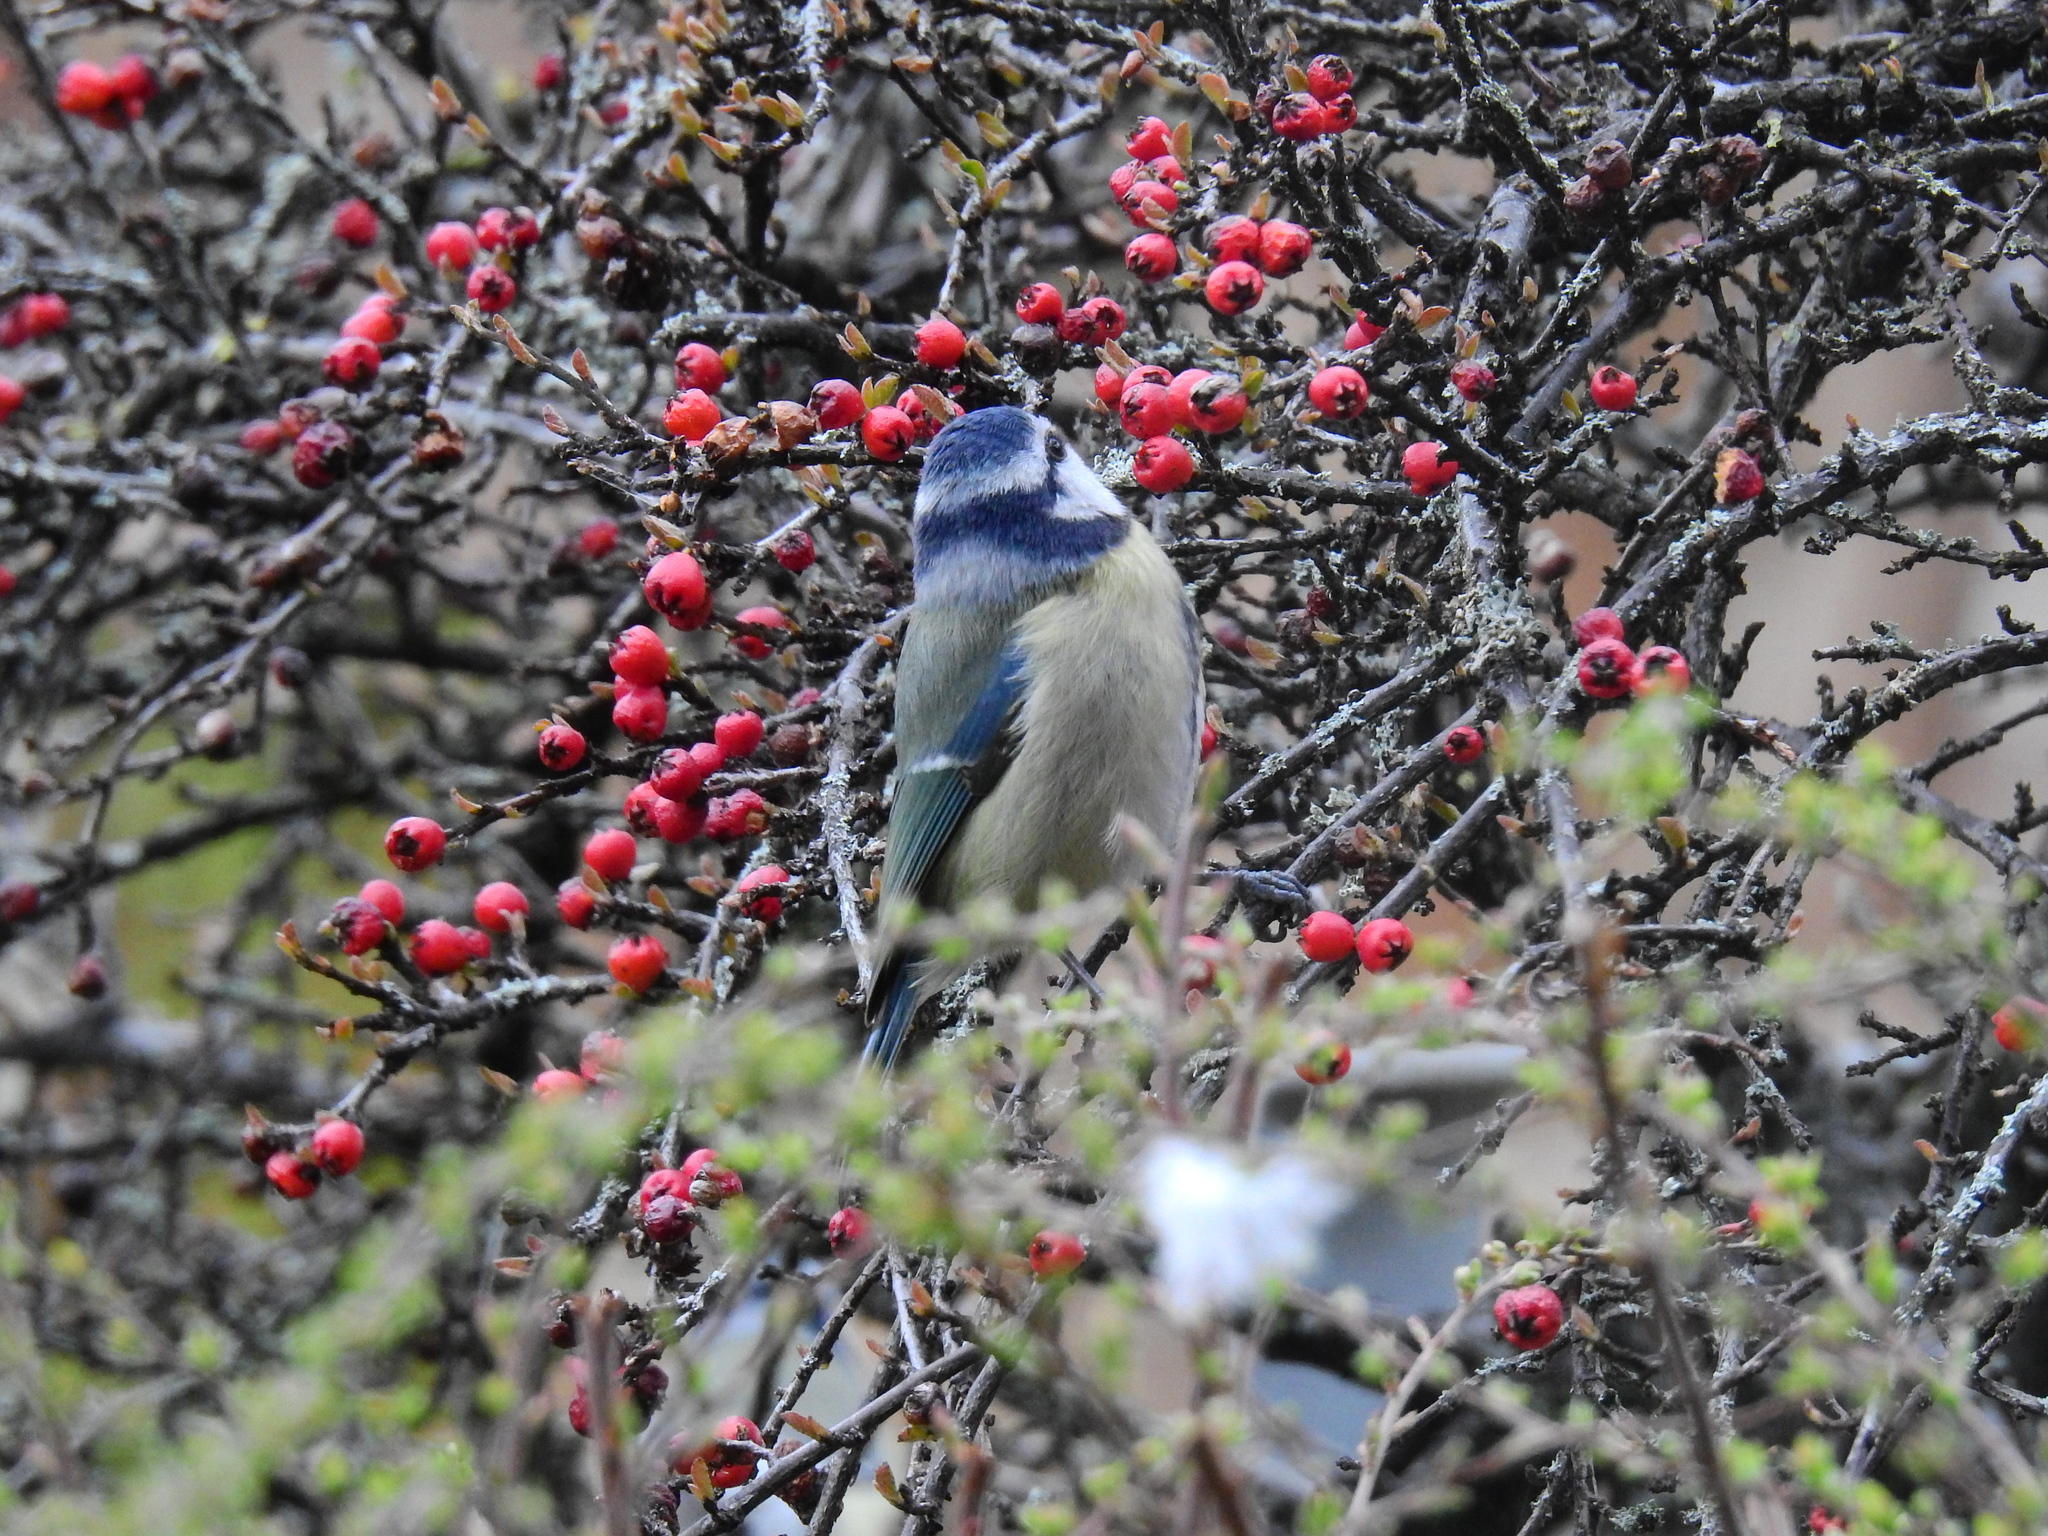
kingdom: Animalia
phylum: Chordata
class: Aves
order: Passeriformes
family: Paridae
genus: Cyanistes
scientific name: Cyanistes caeruleus
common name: Eurasian blue tit
